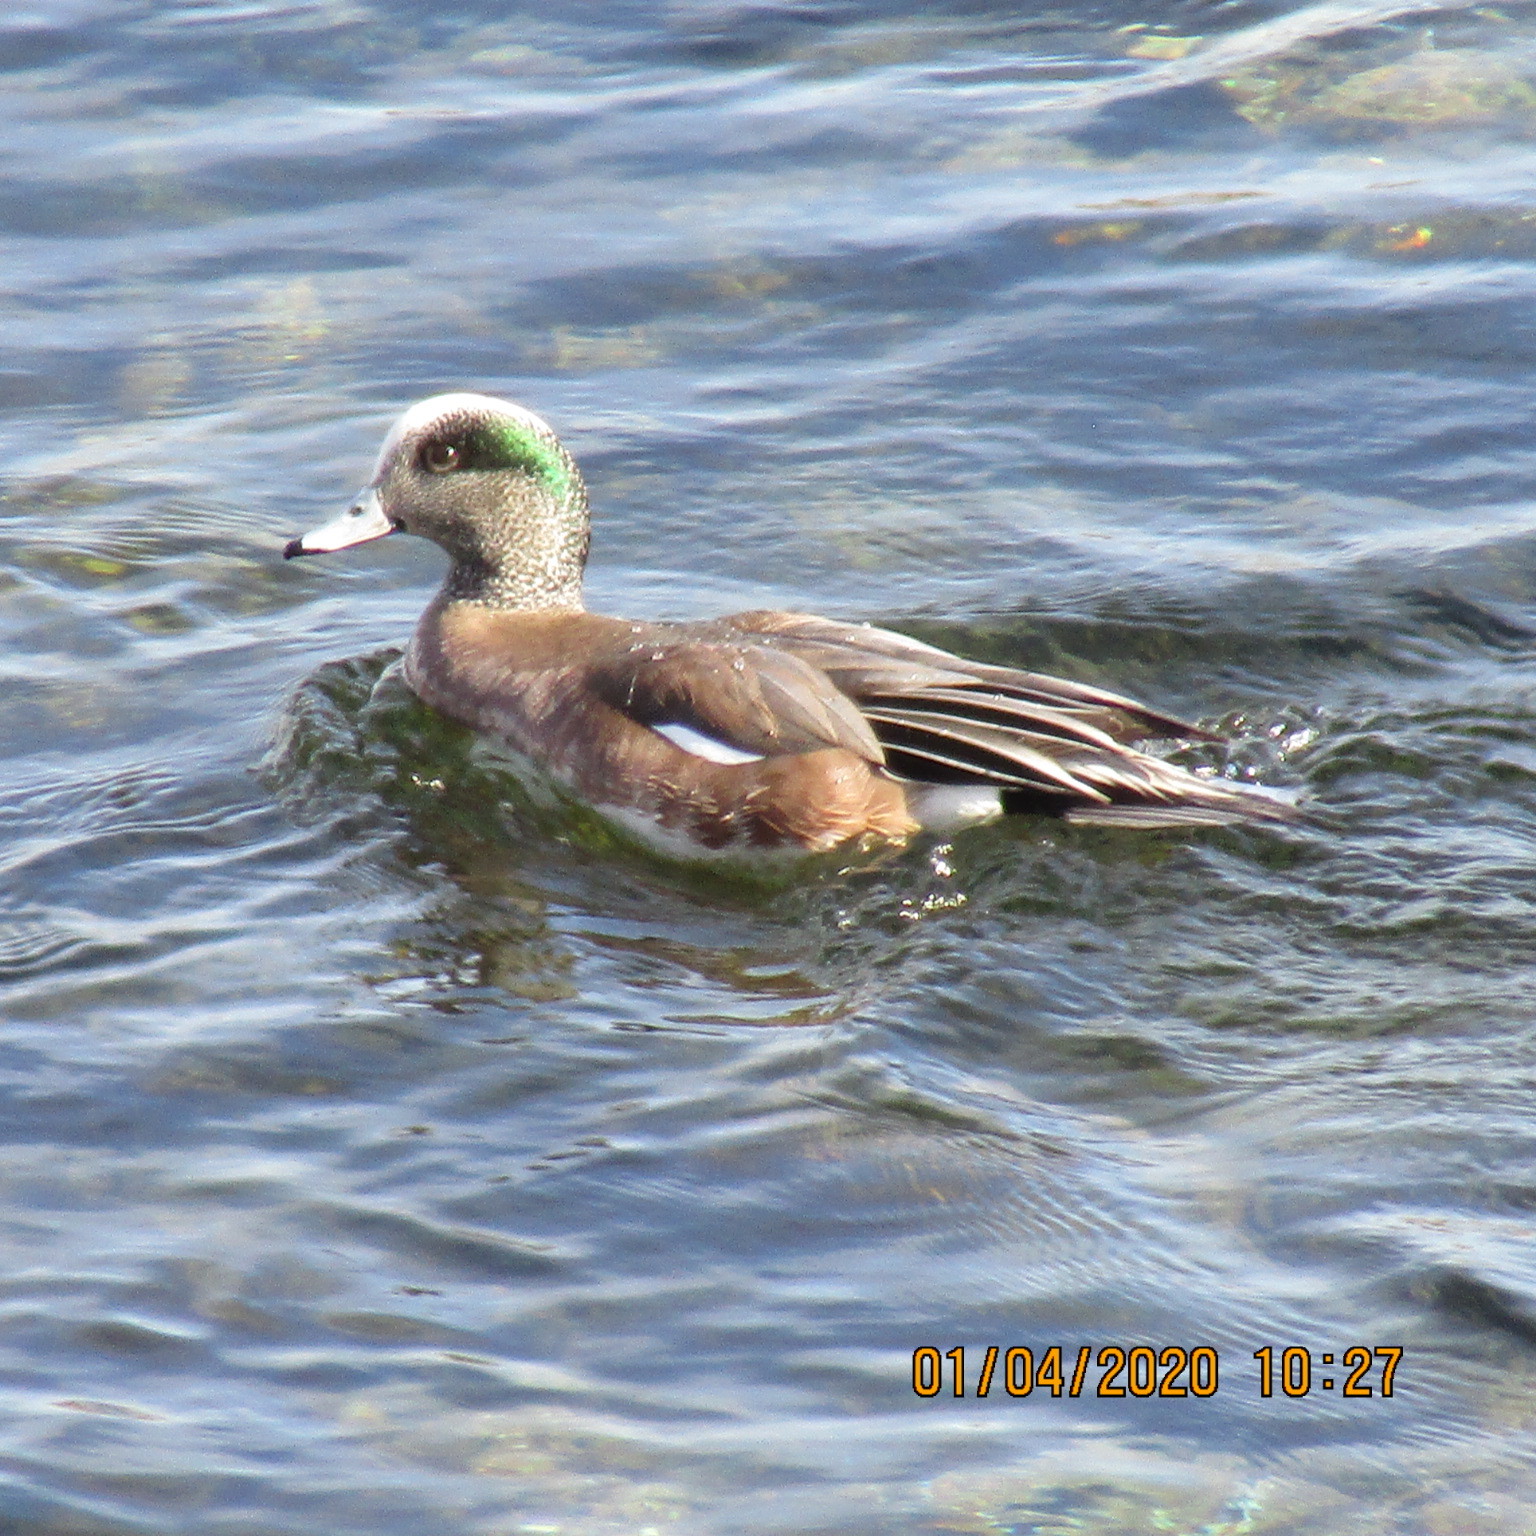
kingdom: Animalia
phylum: Chordata
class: Aves
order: Anseriformes
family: Anatidae
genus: Mareca
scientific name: Mareca americana
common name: American wigeon
